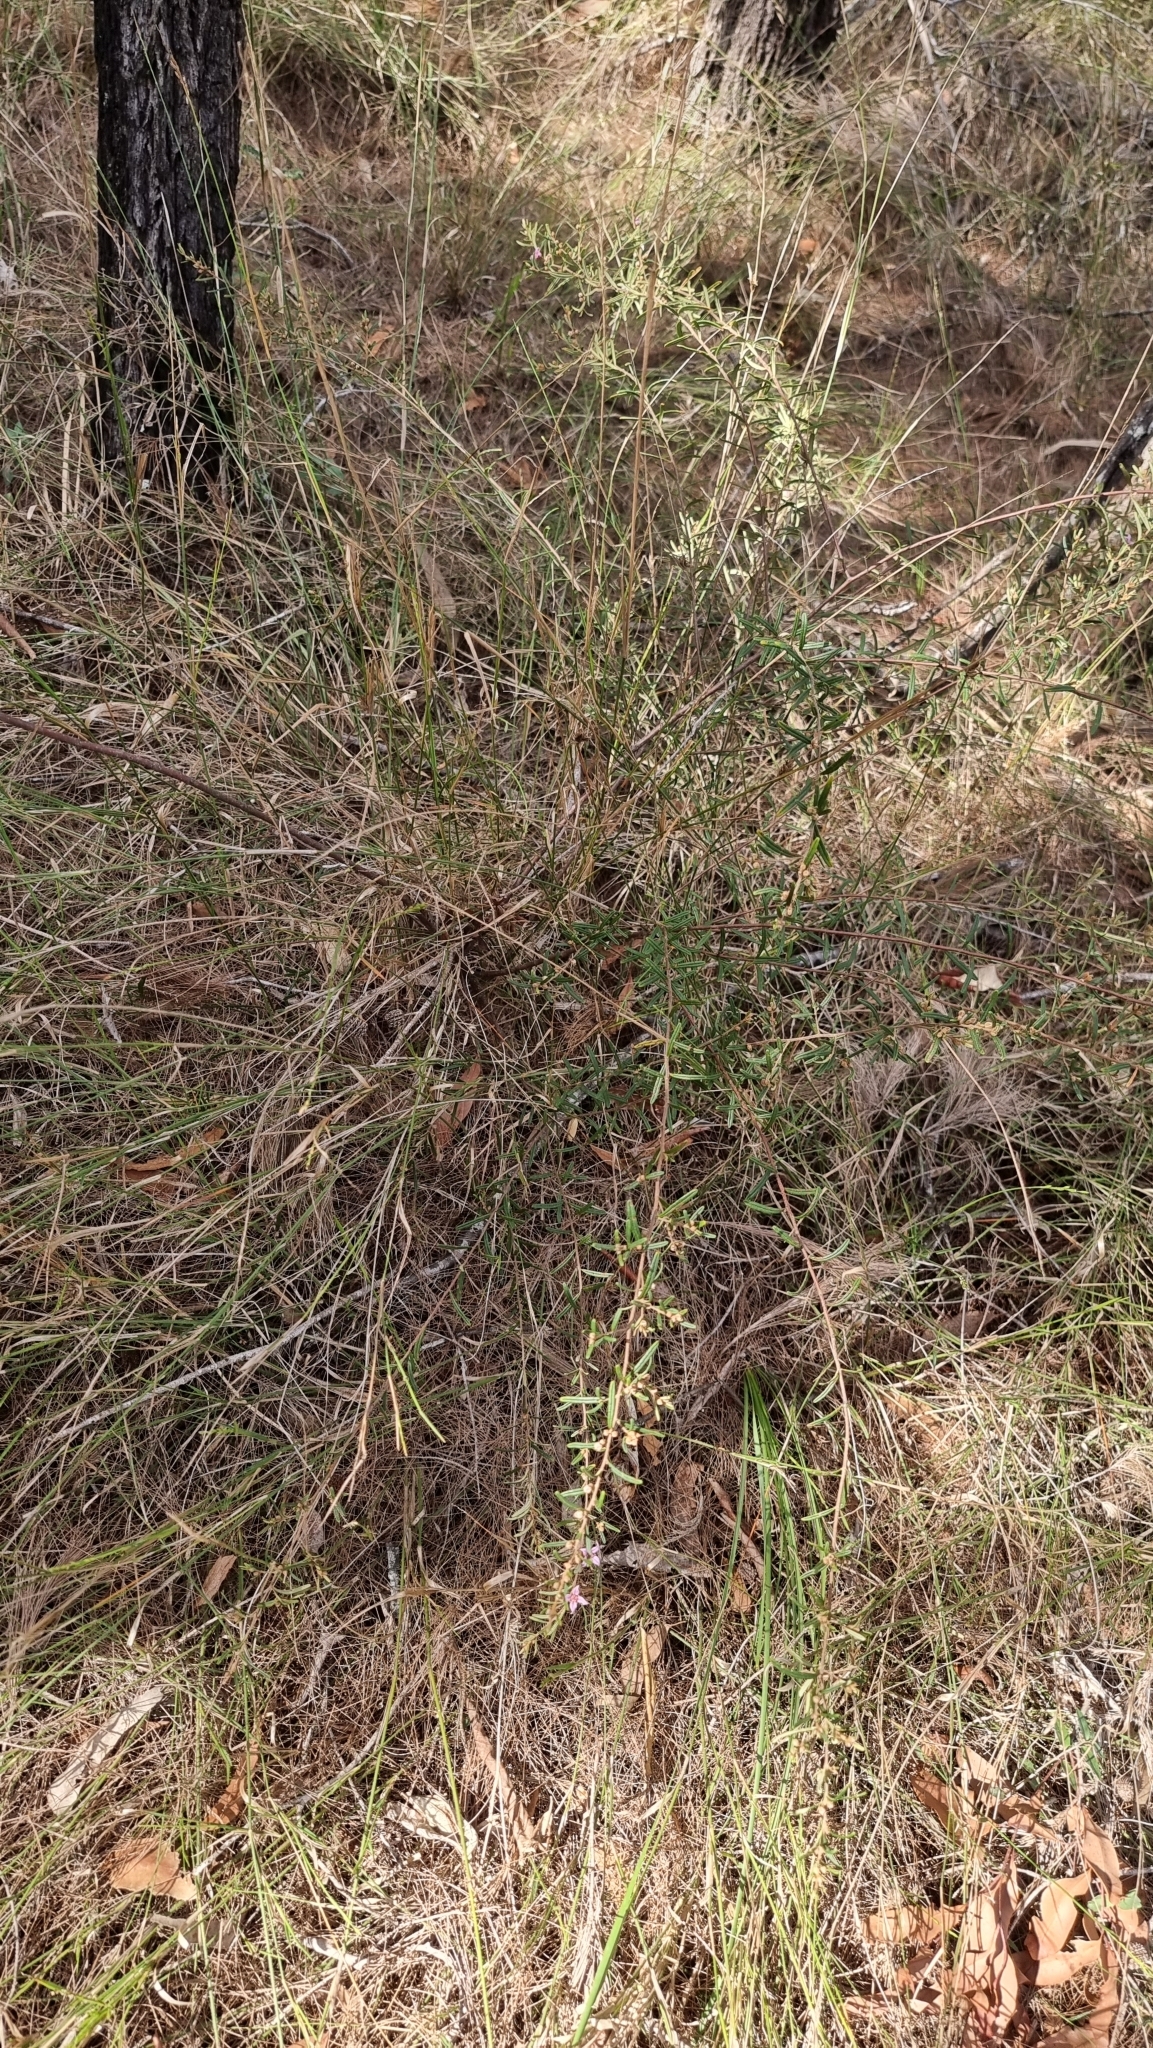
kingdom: Plantae
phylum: Tracheophyta
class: Magnoliopsida
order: Sapindales
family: Rutaceae
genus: Boronia
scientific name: Boronia rosmarinifolia
